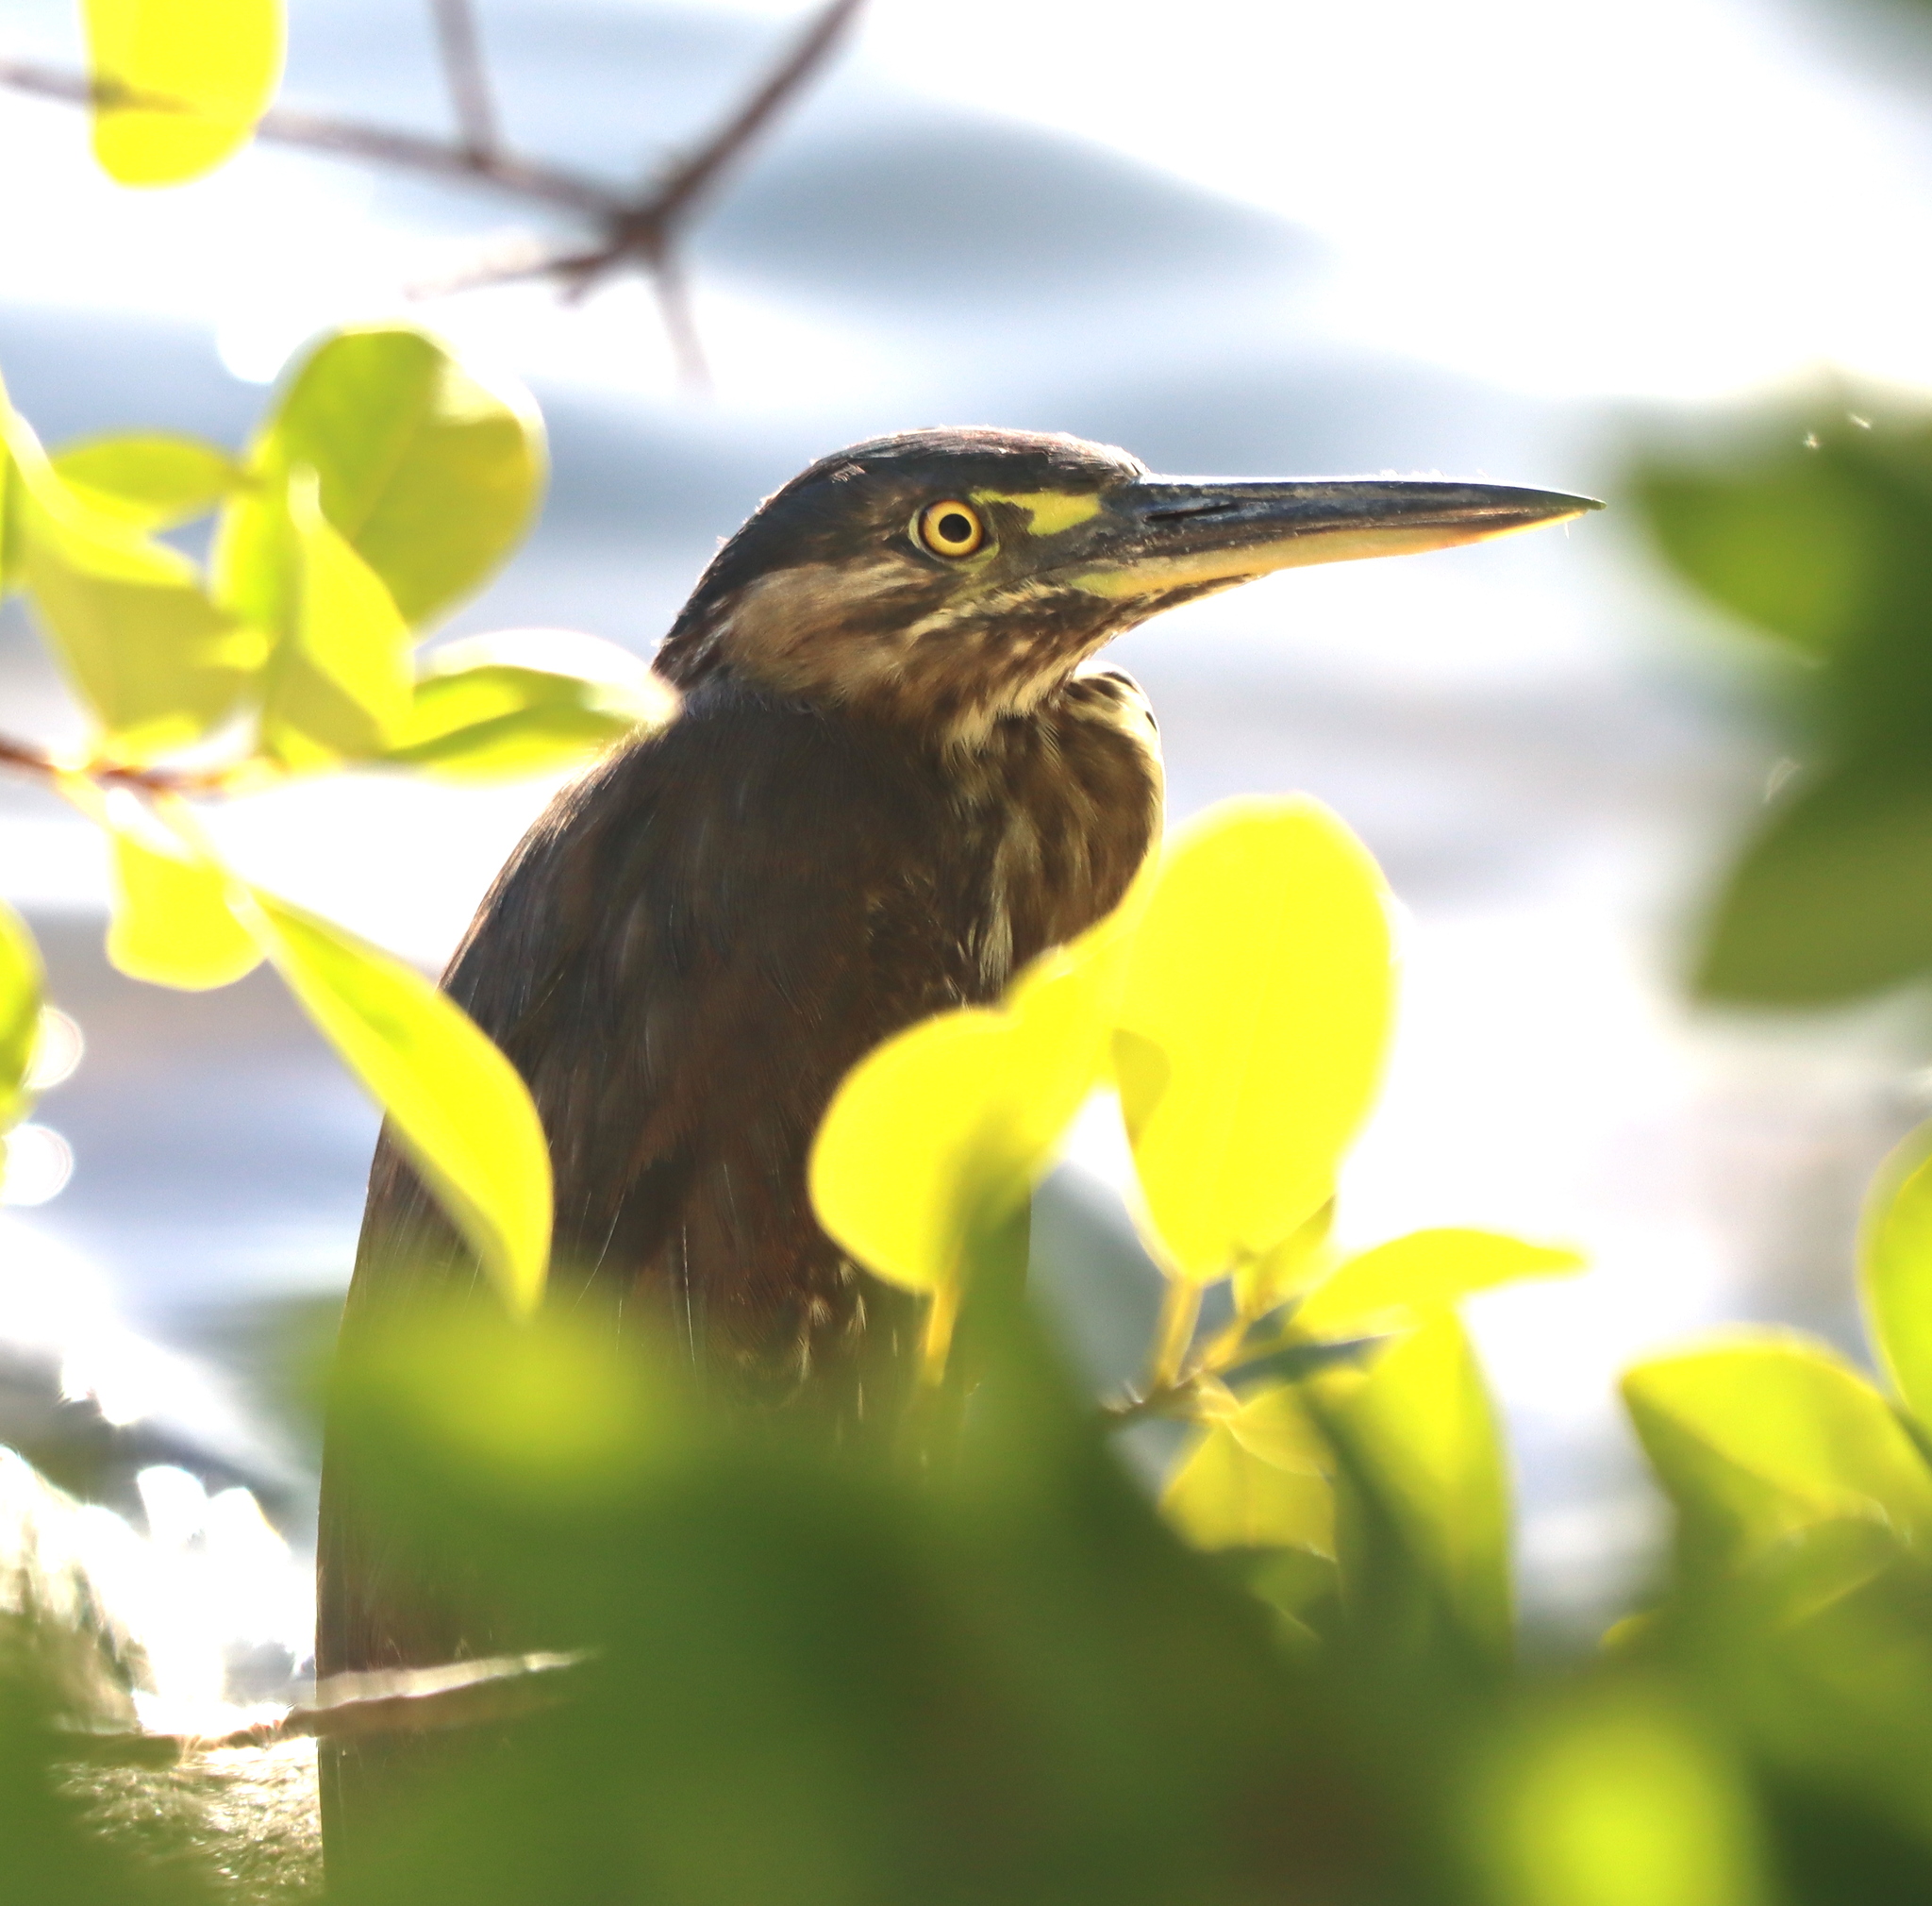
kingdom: Animalia
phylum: Chordata
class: Aves
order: Pelecaniformes
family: Ardeidae
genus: Butorides
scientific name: Butorides striata
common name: Striated heron
